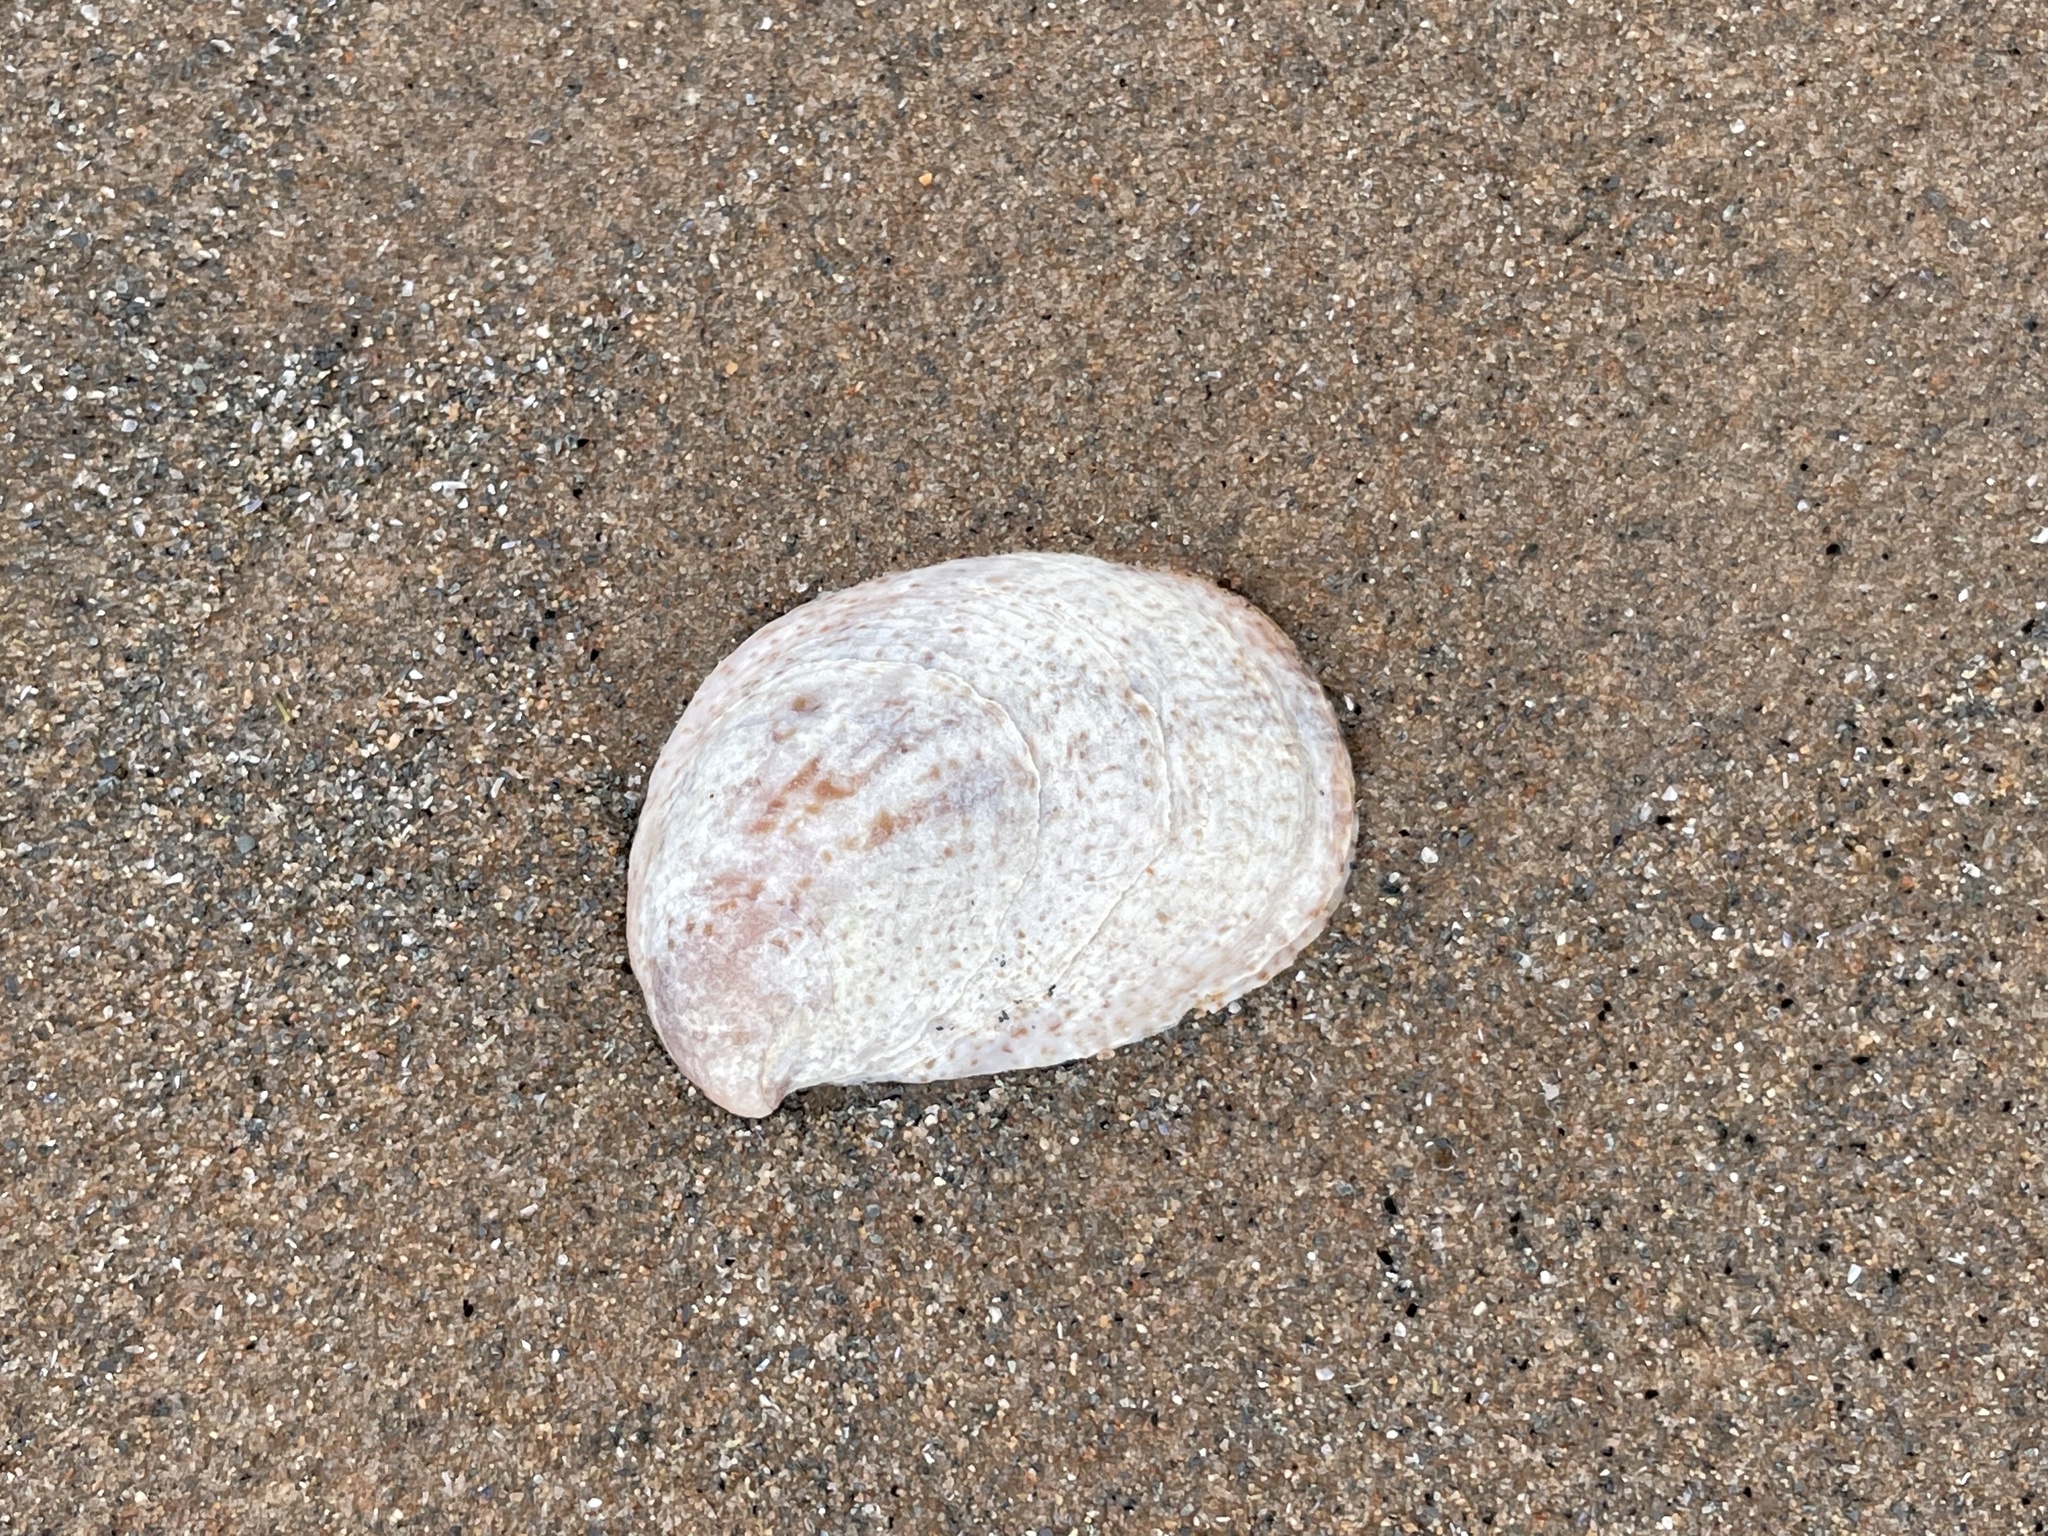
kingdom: Animalia
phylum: Mollusca
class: Gastropoda
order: Littorinimorpha
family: Calyptraeidae
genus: Crepidula
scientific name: Crepidula fornicata
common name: Slipper limpet
